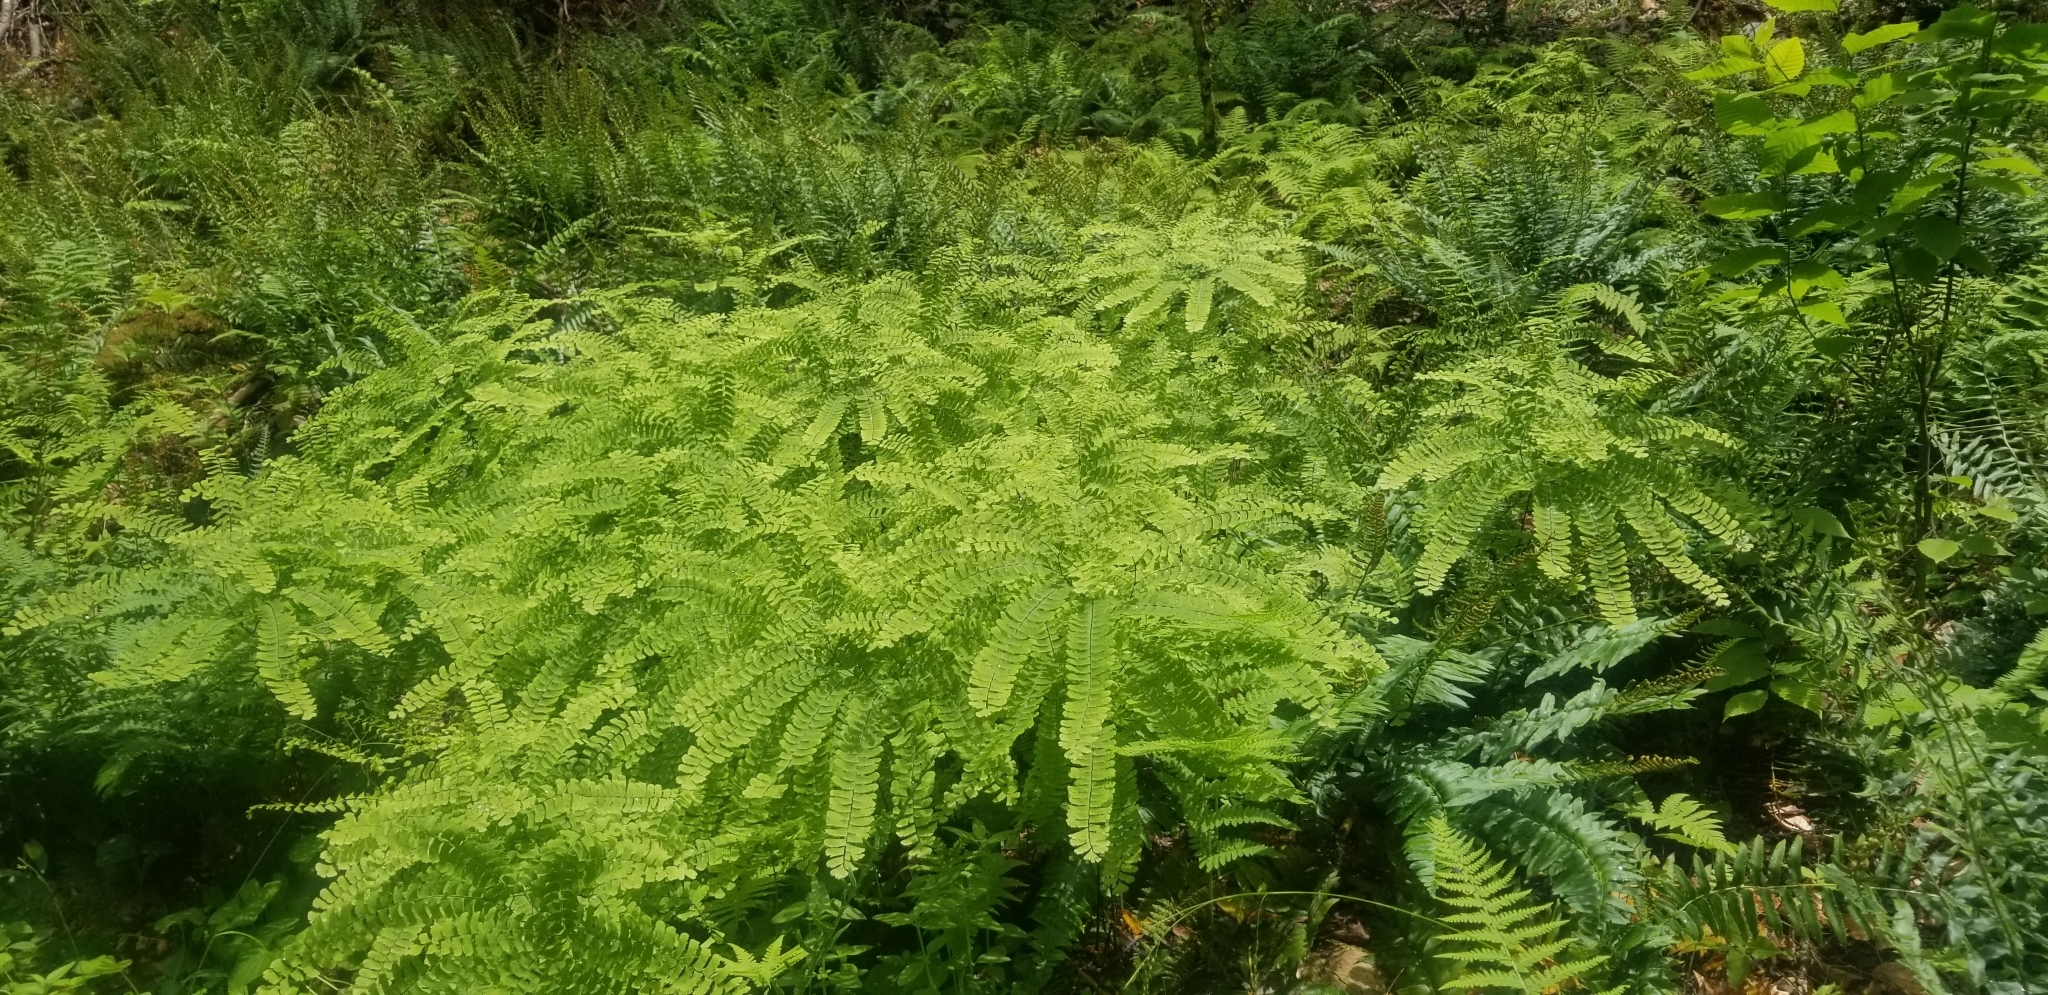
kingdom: Plantae
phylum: Tracheophyta
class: Polypodiopsida
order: Polypodiales
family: Pteridaceae
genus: Adiantum
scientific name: Adiantum pedatum
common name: Five-finger fern
